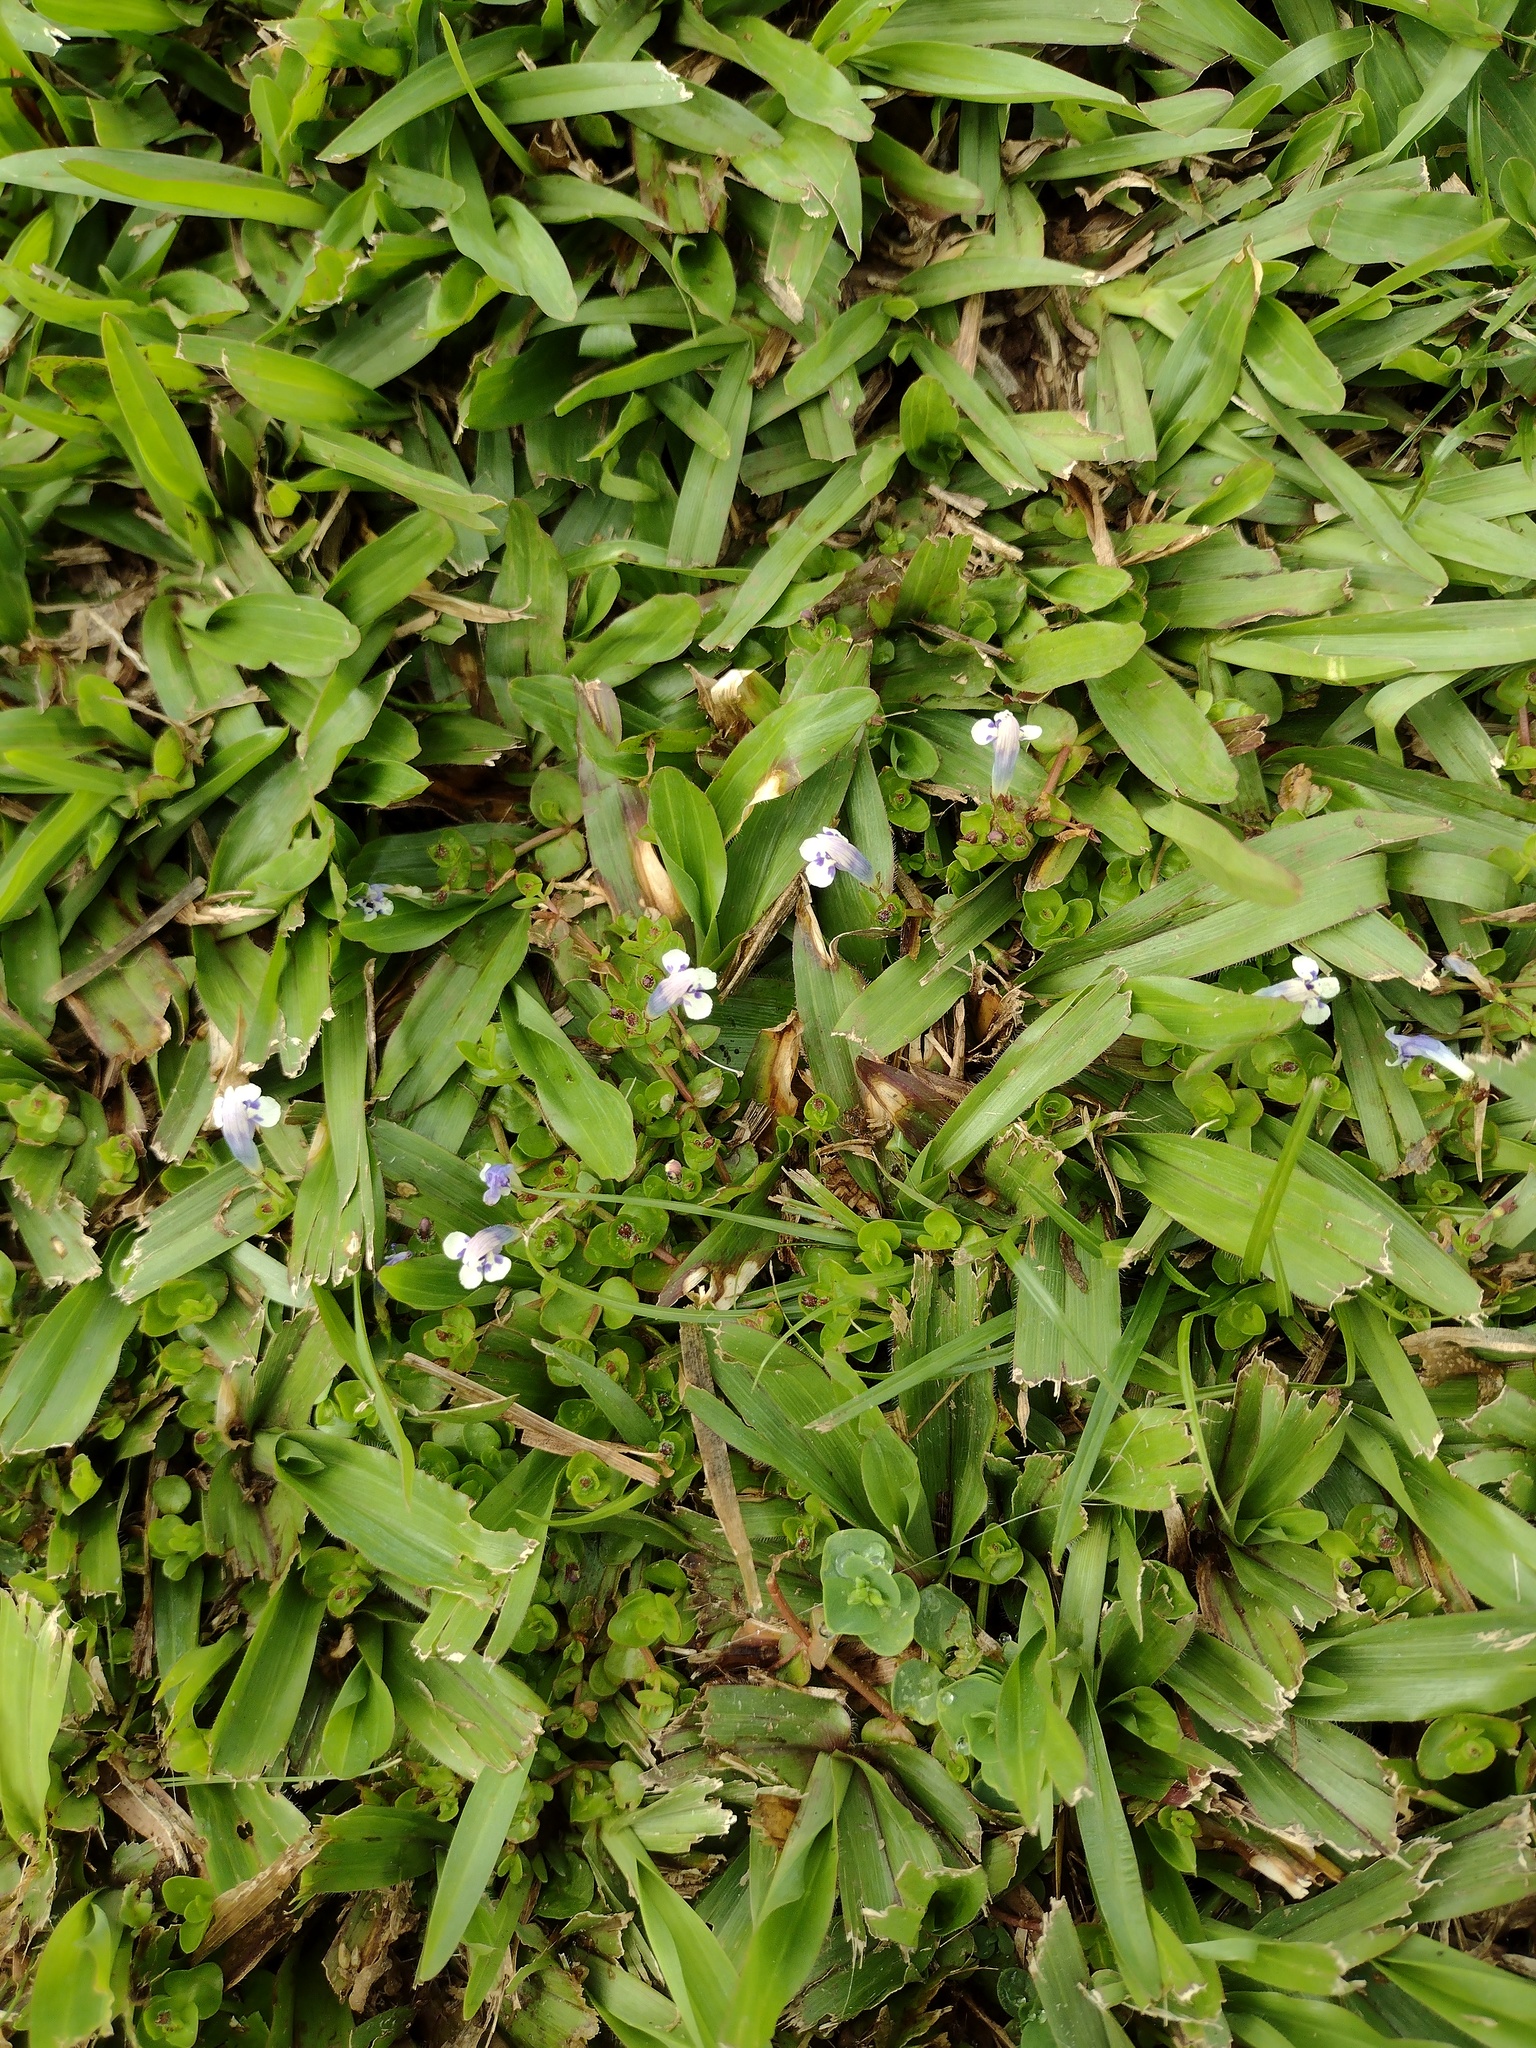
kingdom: Plantae
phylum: Tracheophyta
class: Magnoliopsida
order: Lamiales
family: Linderniaceae
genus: Lindernia
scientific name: Lindernia rotundifolia
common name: Baby’s tears
